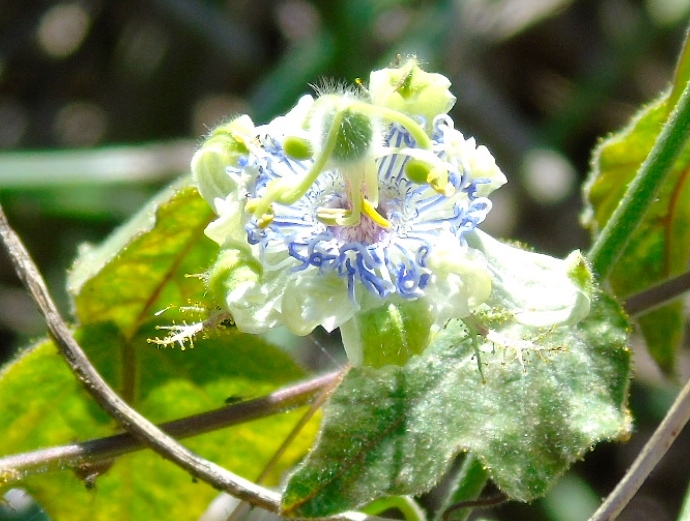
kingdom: Plantae
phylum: Tracheophyta
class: Magnoliopsida
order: Malpighiales
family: Passifloraceae
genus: Passiflora
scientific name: Passiflora foetida
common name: Fetid passionflower
